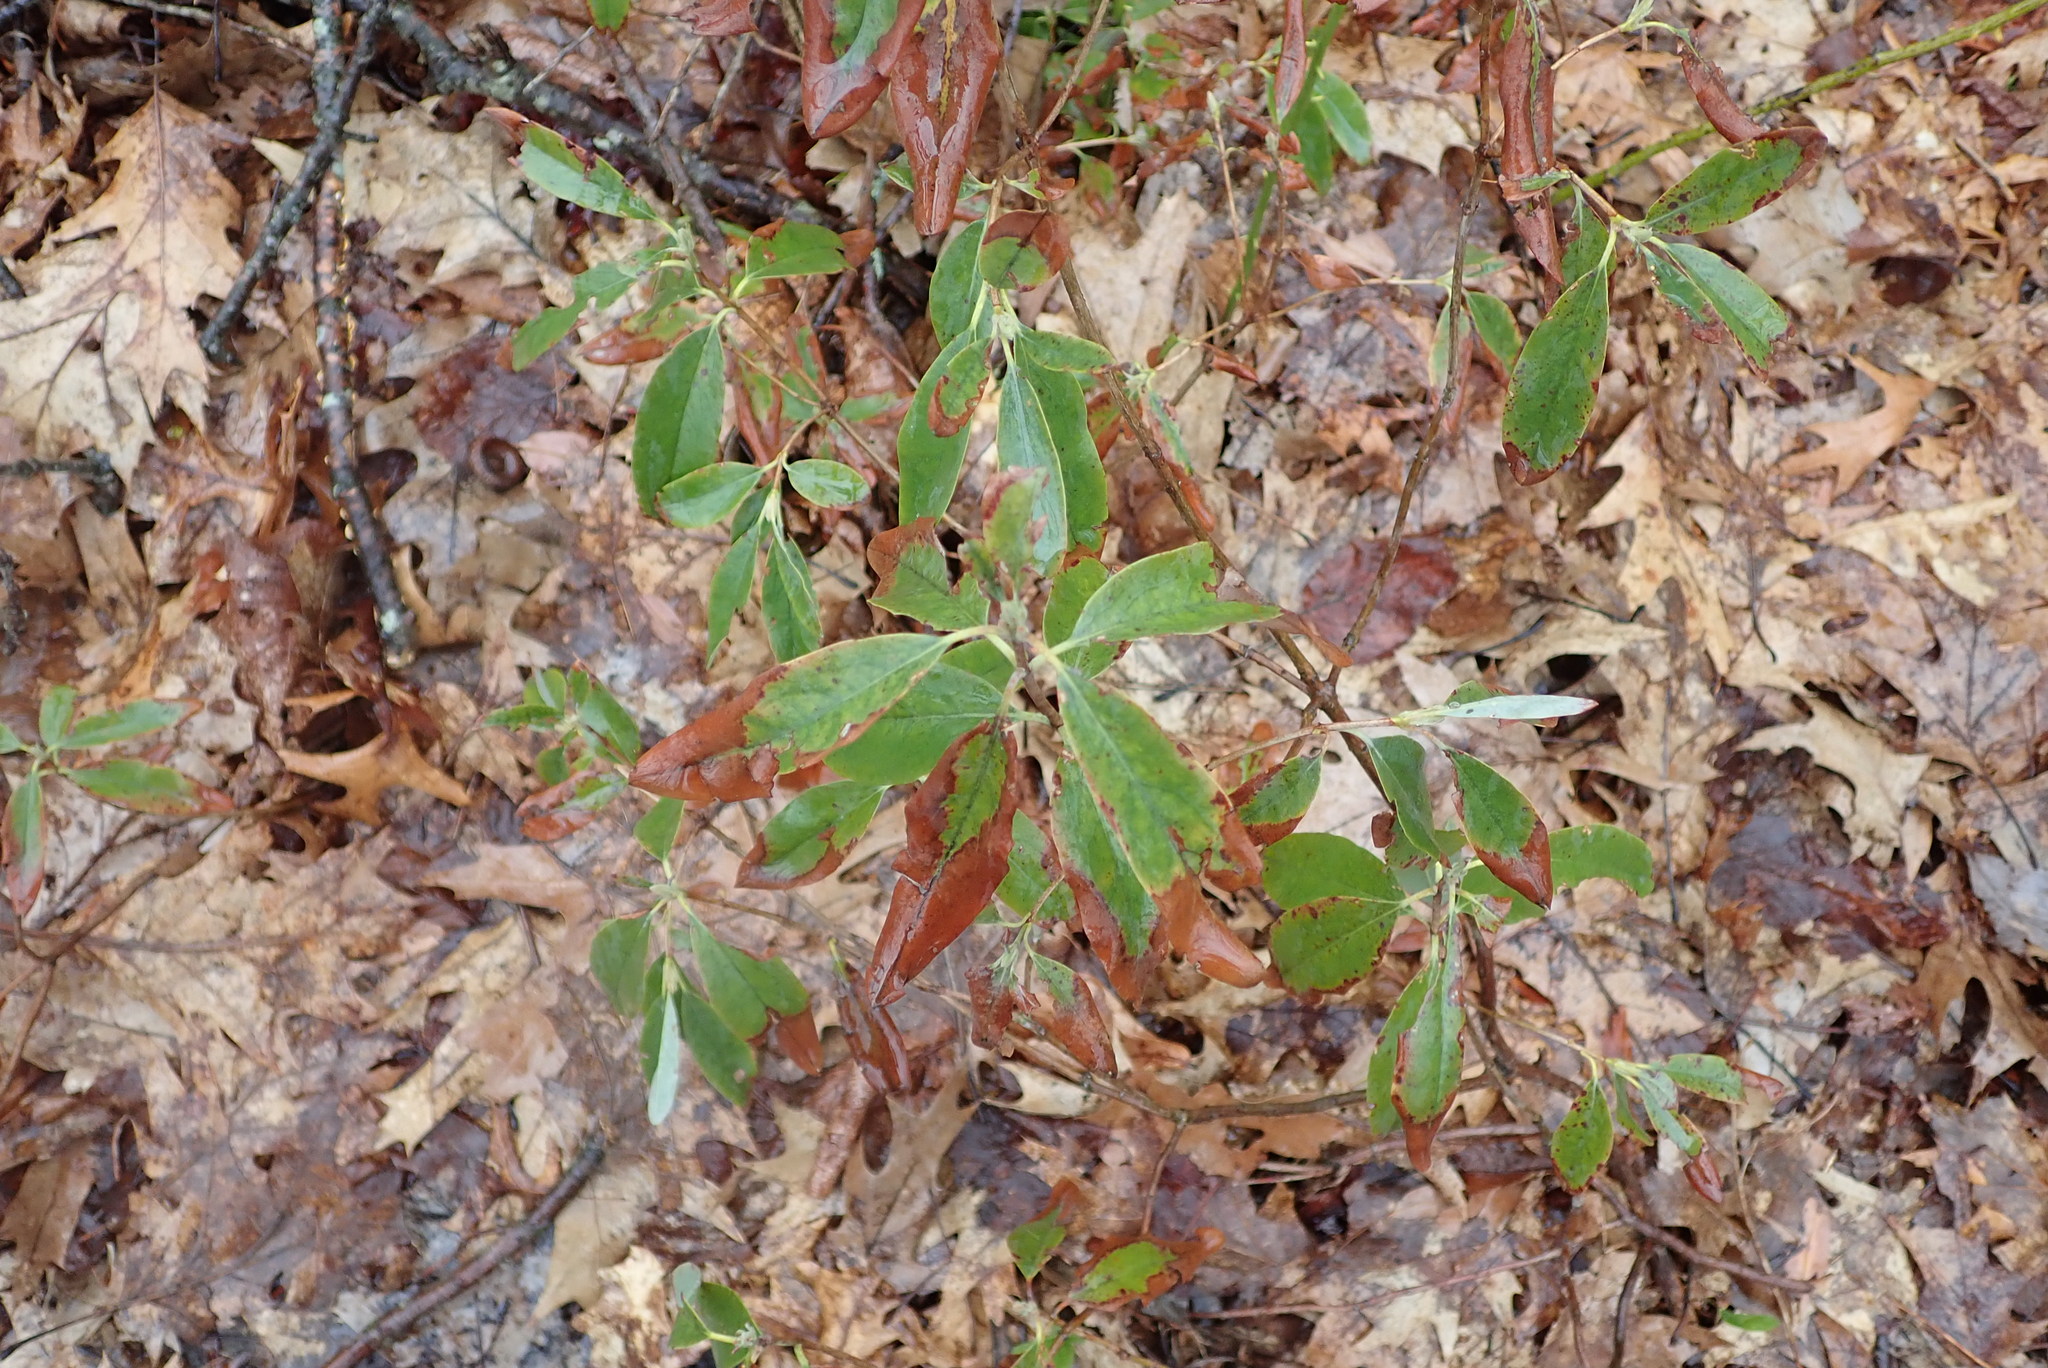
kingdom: Plantae
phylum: Tracheophyta
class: Magnoliopsida
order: Ericales
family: Ericaceae
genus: Kalmia
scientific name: Kalmia latifolia
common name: Mountain-laurel
